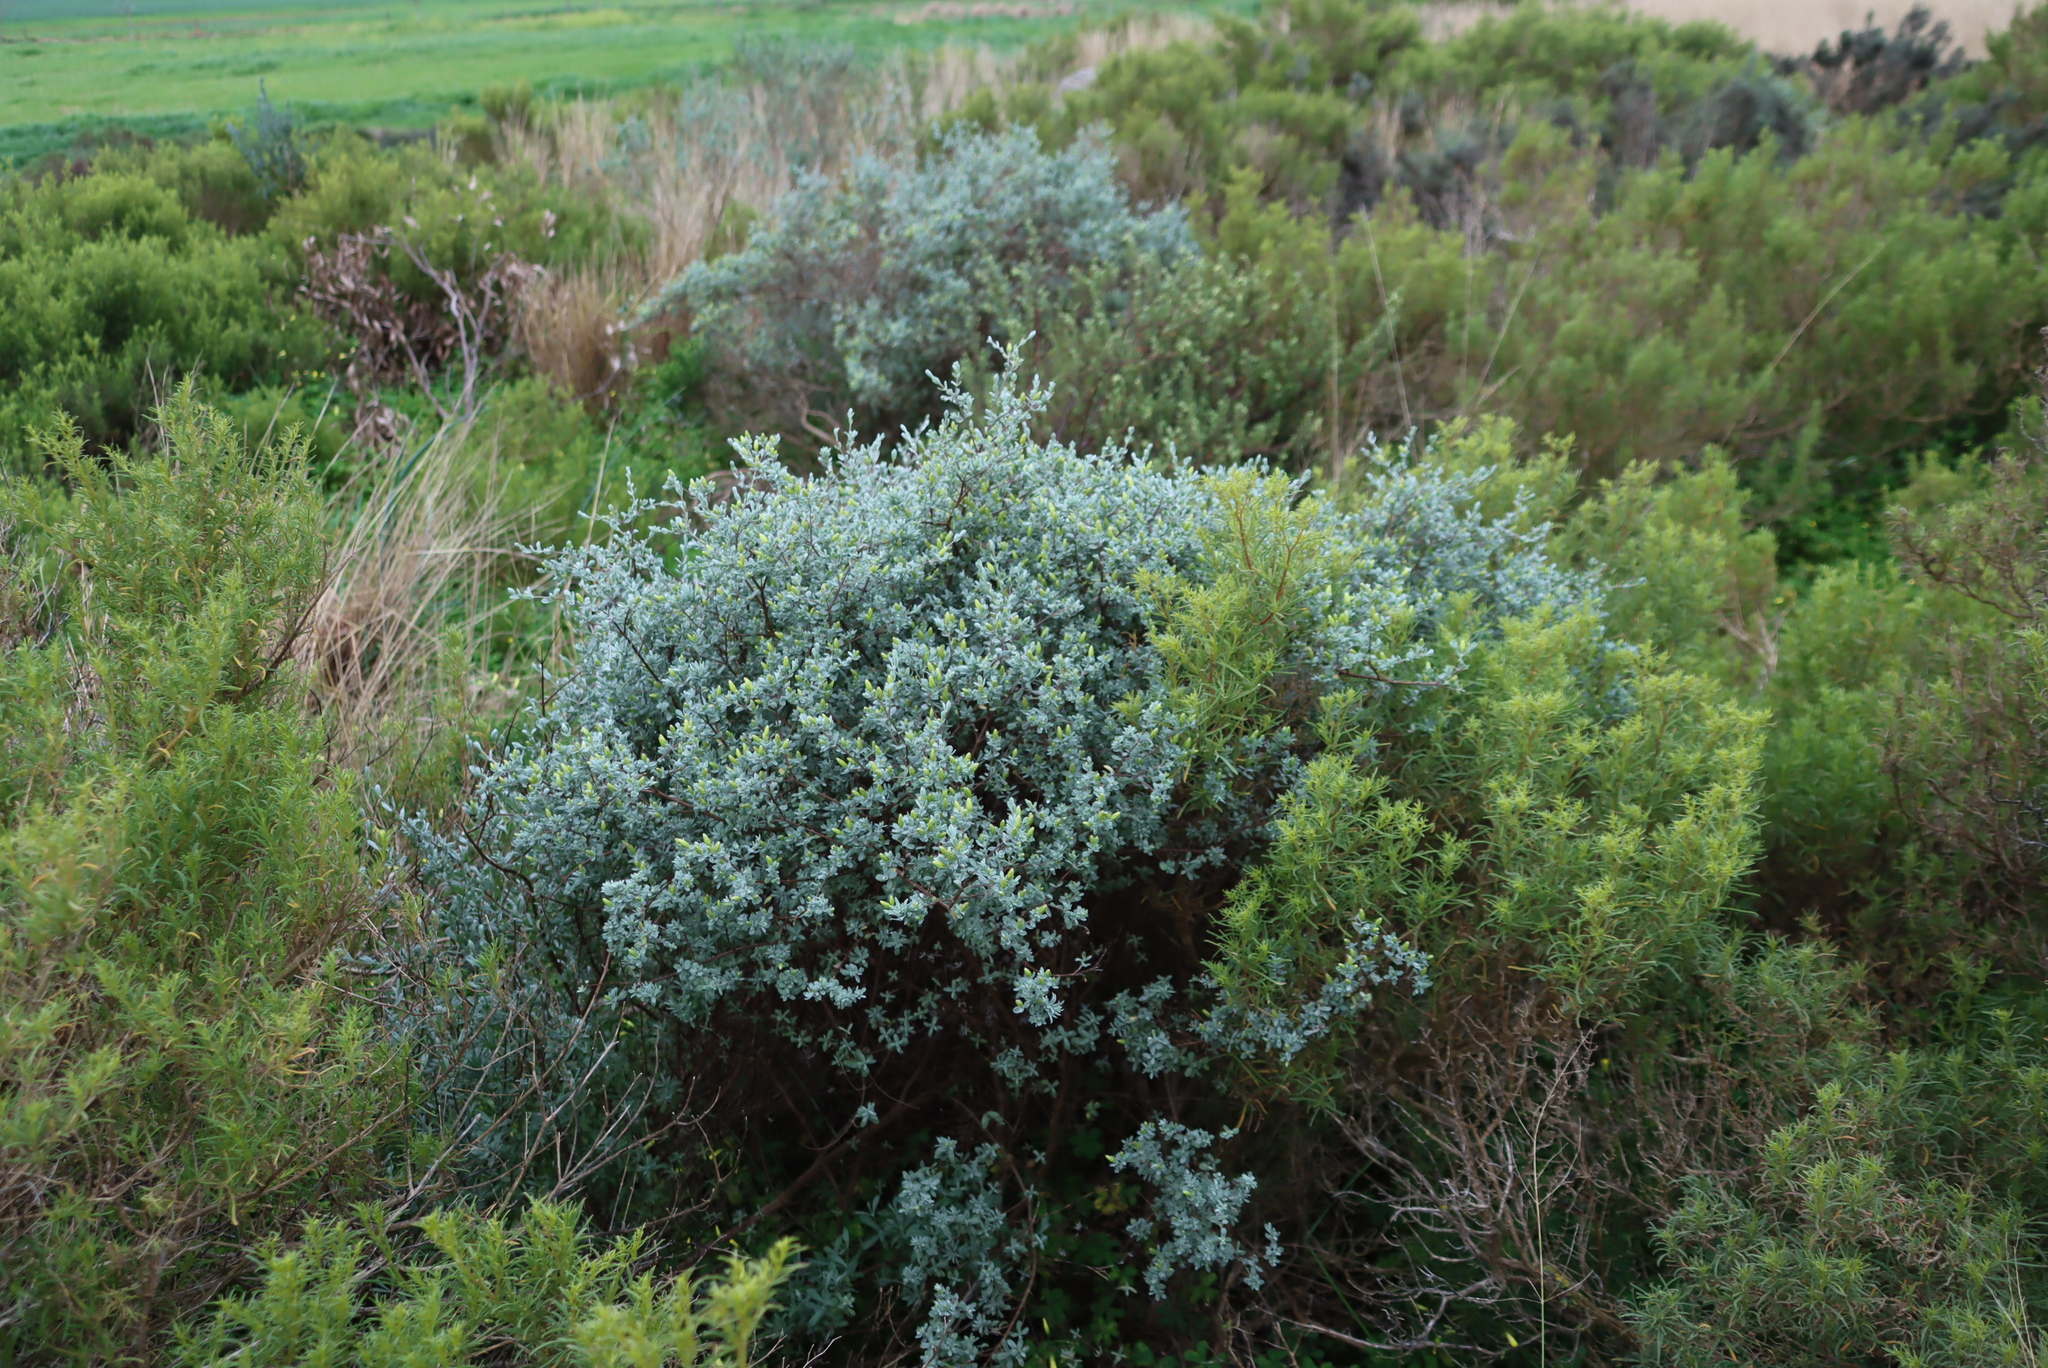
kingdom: Plantae
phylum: Tracheophyta
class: Magnoliopsida
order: Asterales
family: Asteraceae
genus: Pteronia
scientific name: Pteronia incana
